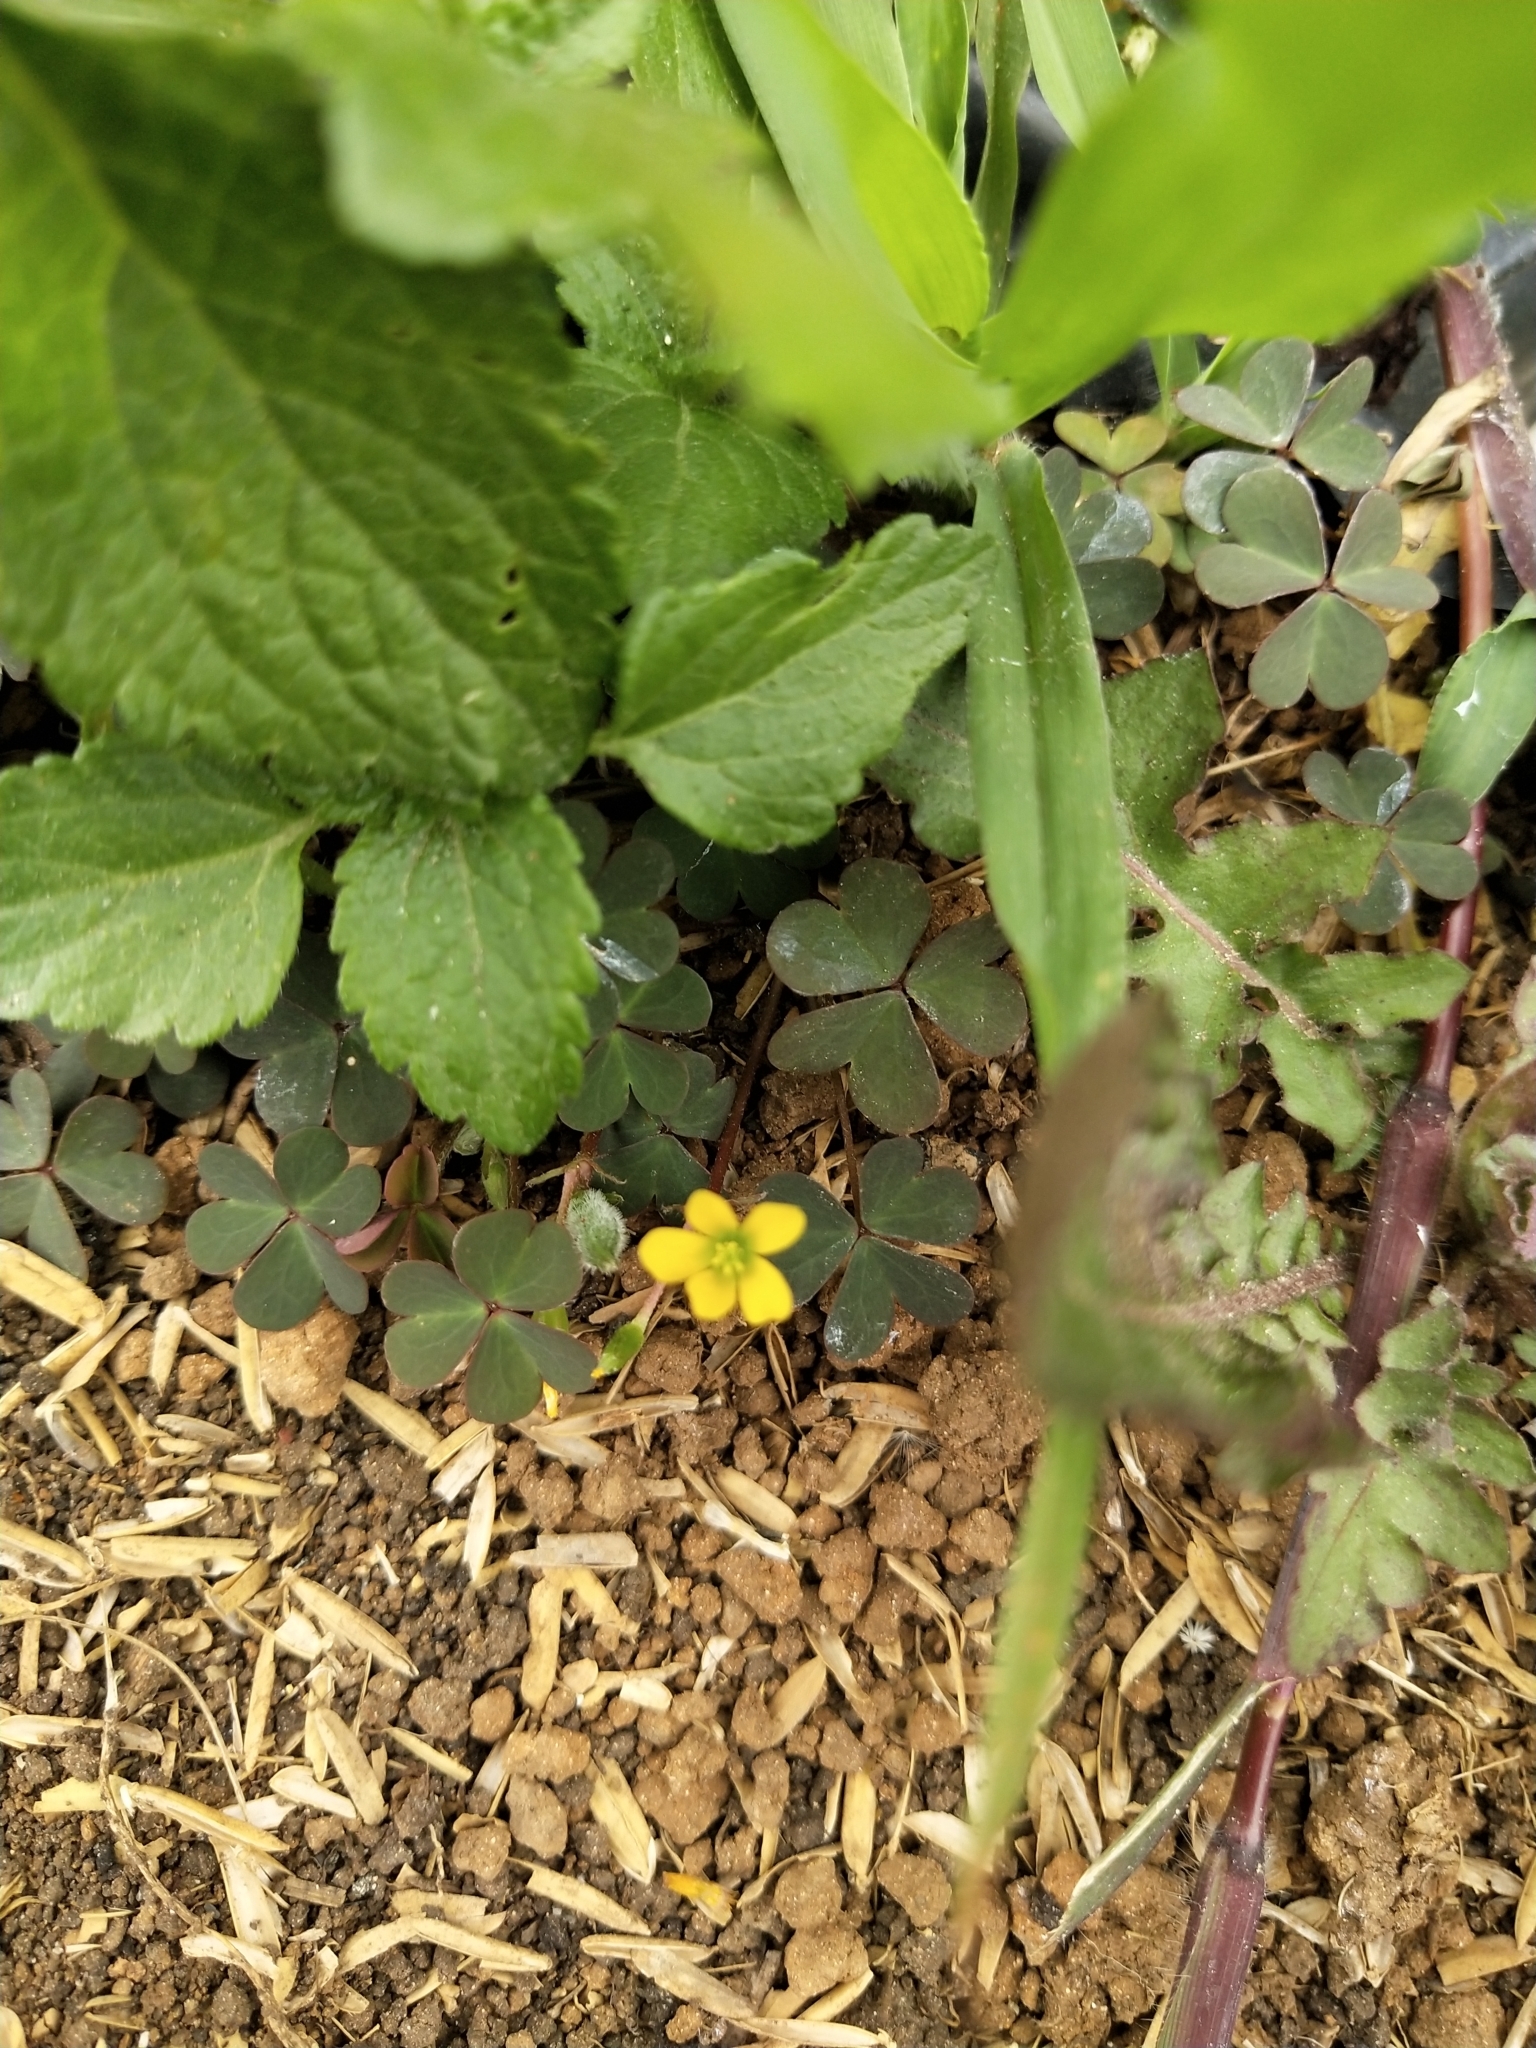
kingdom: Plantae
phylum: Tracheophyta
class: Magnoliopsida
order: Oxalidales
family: Oxalidaceae
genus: Oxalis
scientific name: Oxalis corniculata
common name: Procumbent yellow-sorrel
